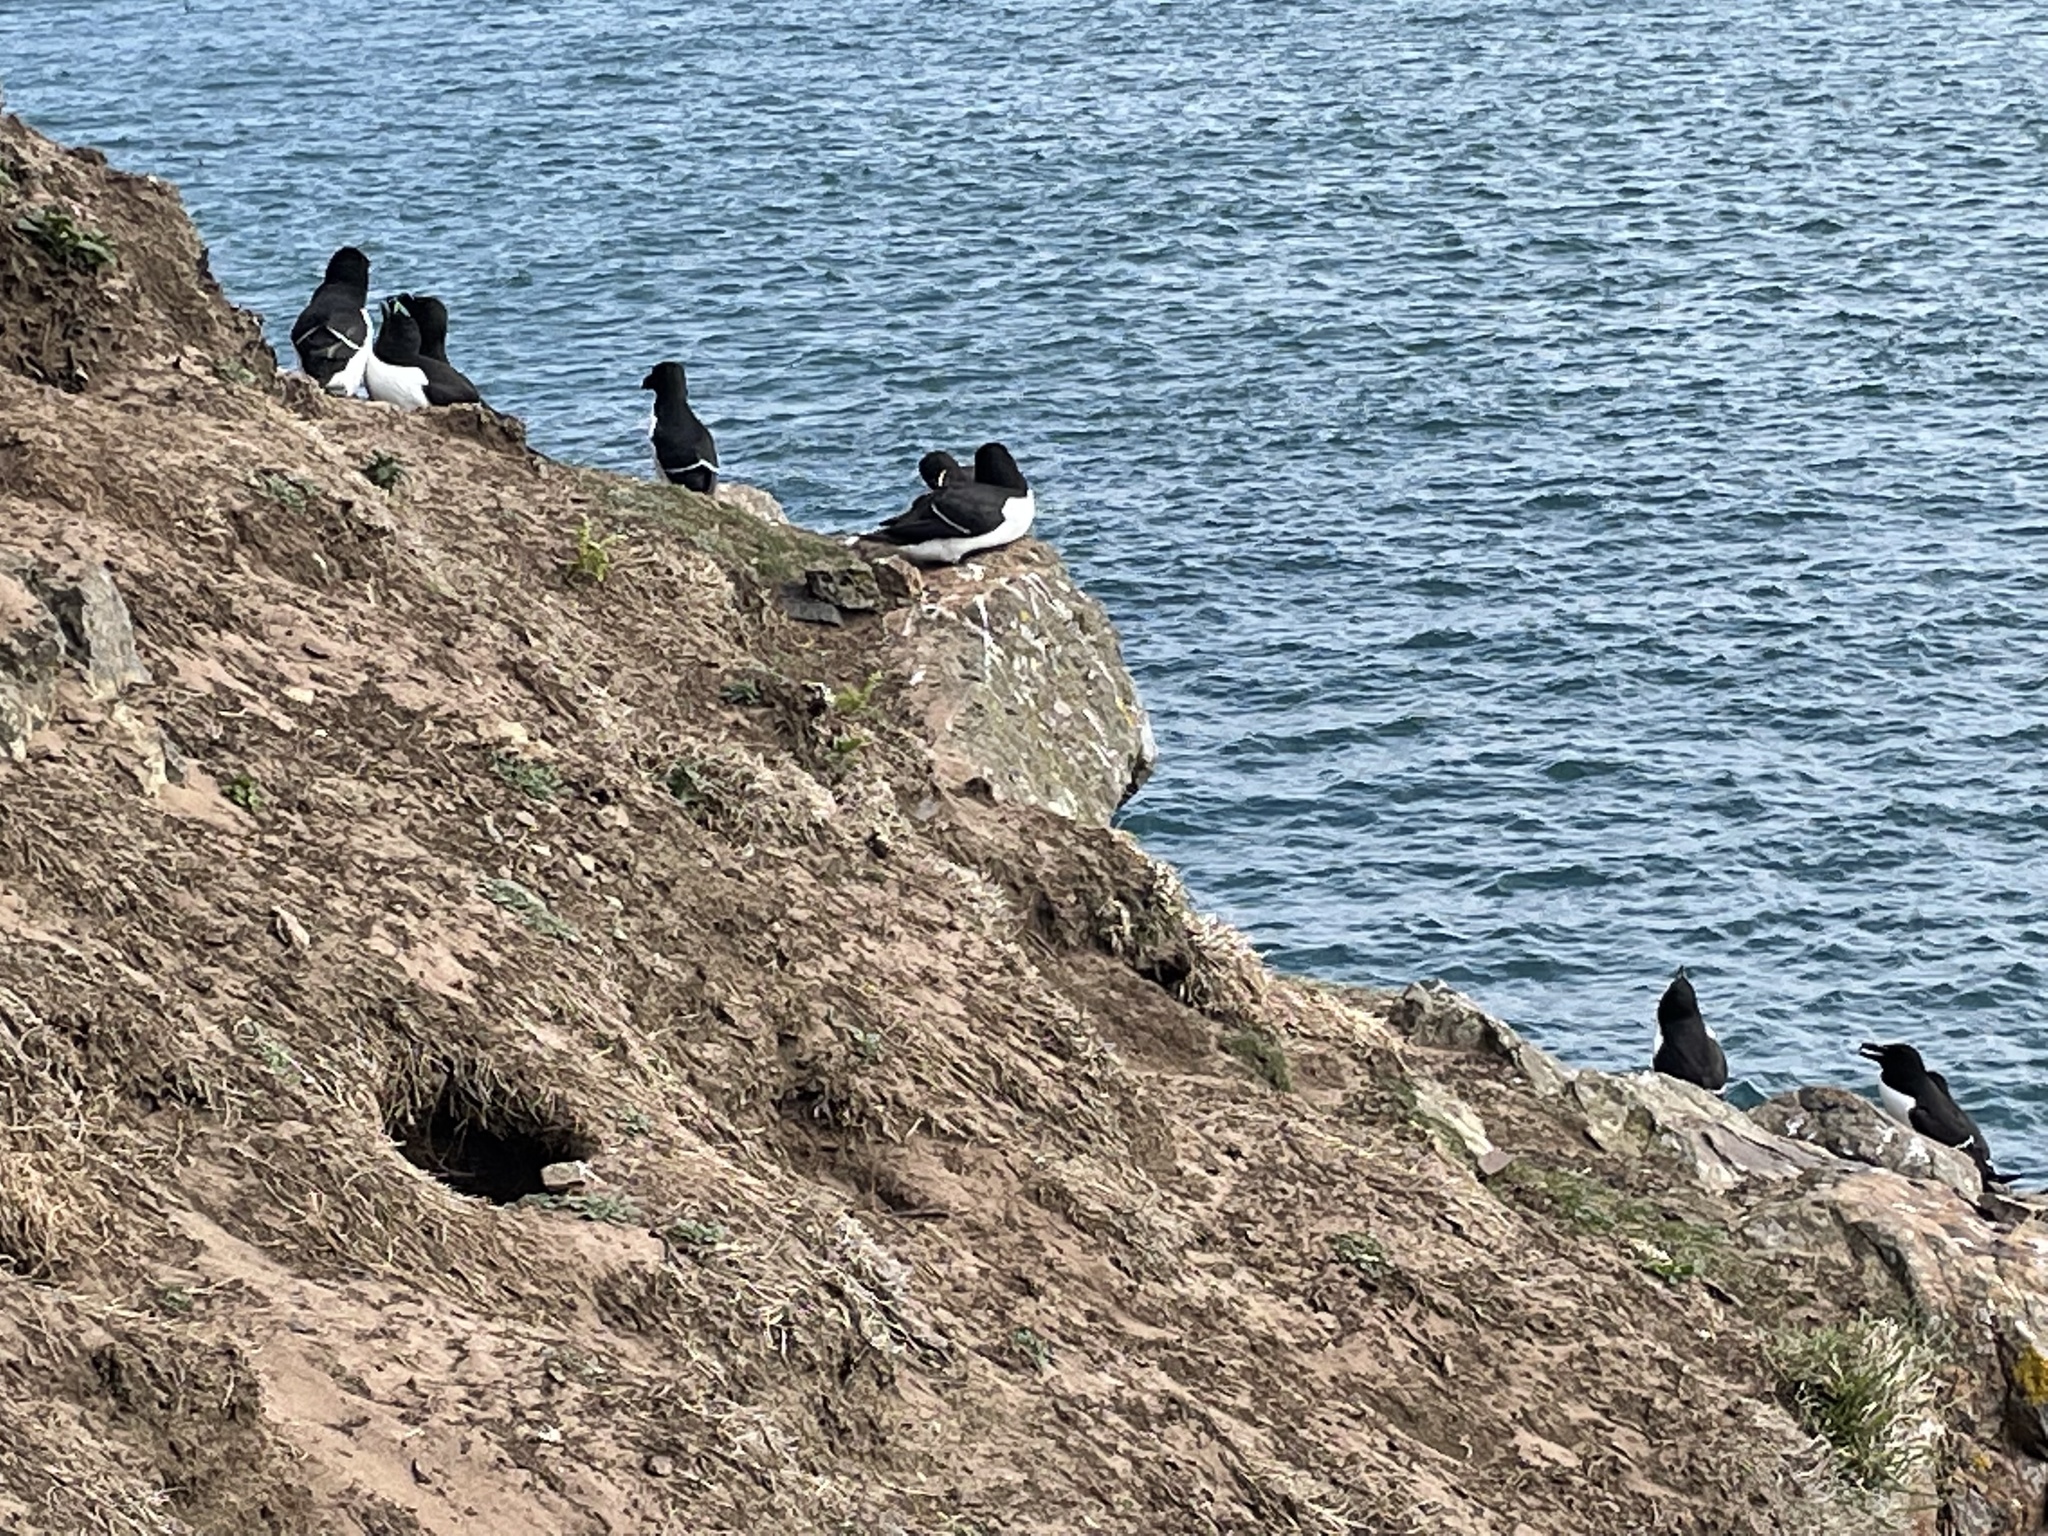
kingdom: Animalia
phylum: Chordata
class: Aves
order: Charadriiformes
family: Alcidae
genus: Alca
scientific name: Alca torda
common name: Razorbill
